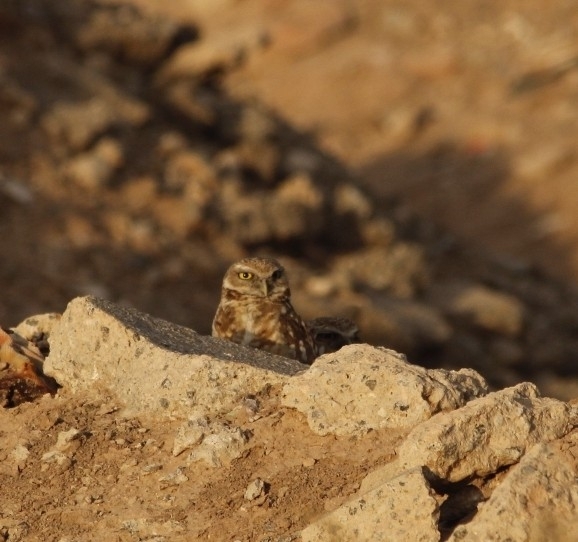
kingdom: Animalia
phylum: Chordata
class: Aves
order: Strigiformes
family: Strigidae
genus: Athene
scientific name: Athene cunicularia
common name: Burrowing owl
